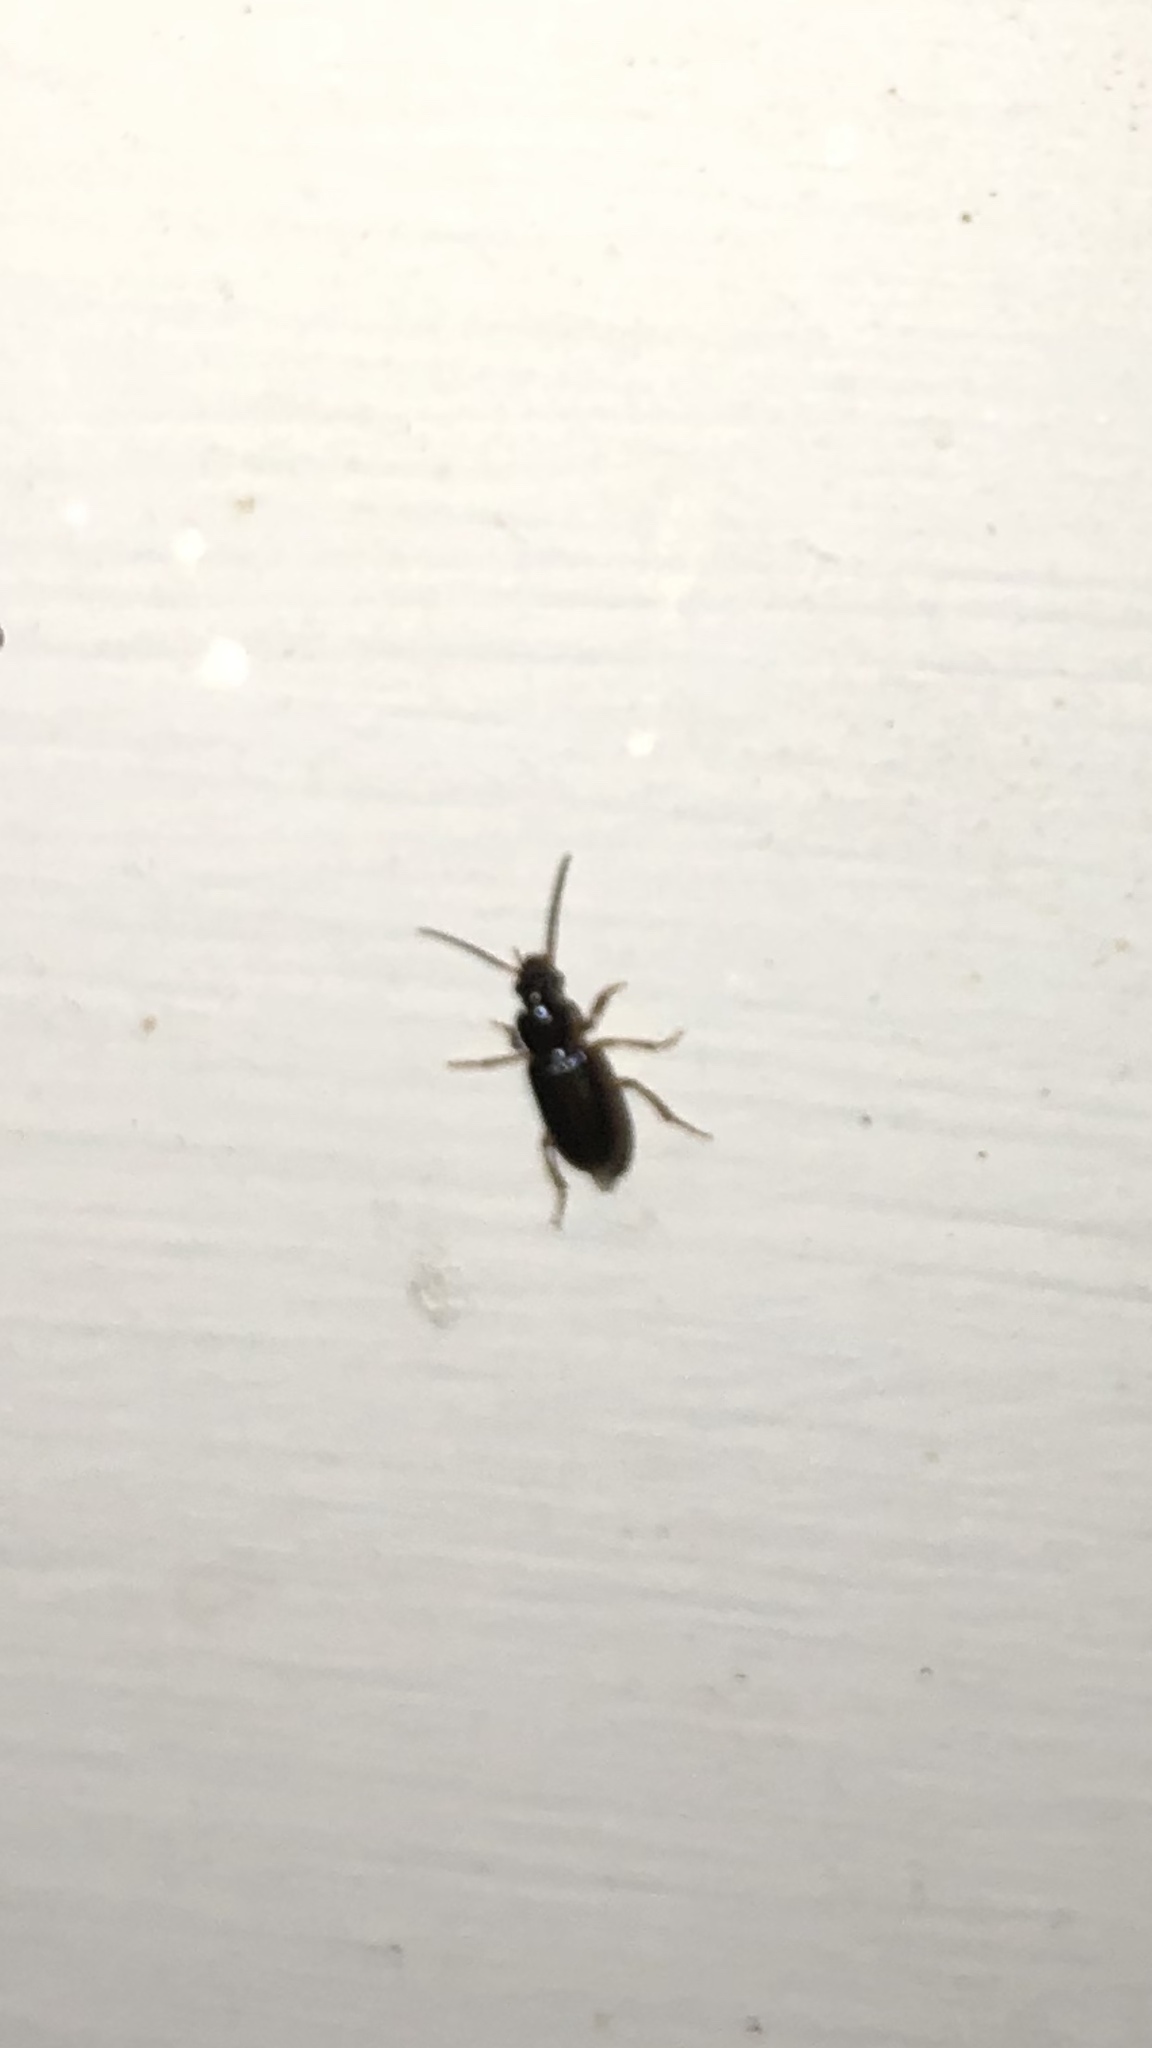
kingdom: Animalia
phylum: Arthropoda
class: Insecta
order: Coleoptera
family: Carabidae
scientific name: Carabidae
